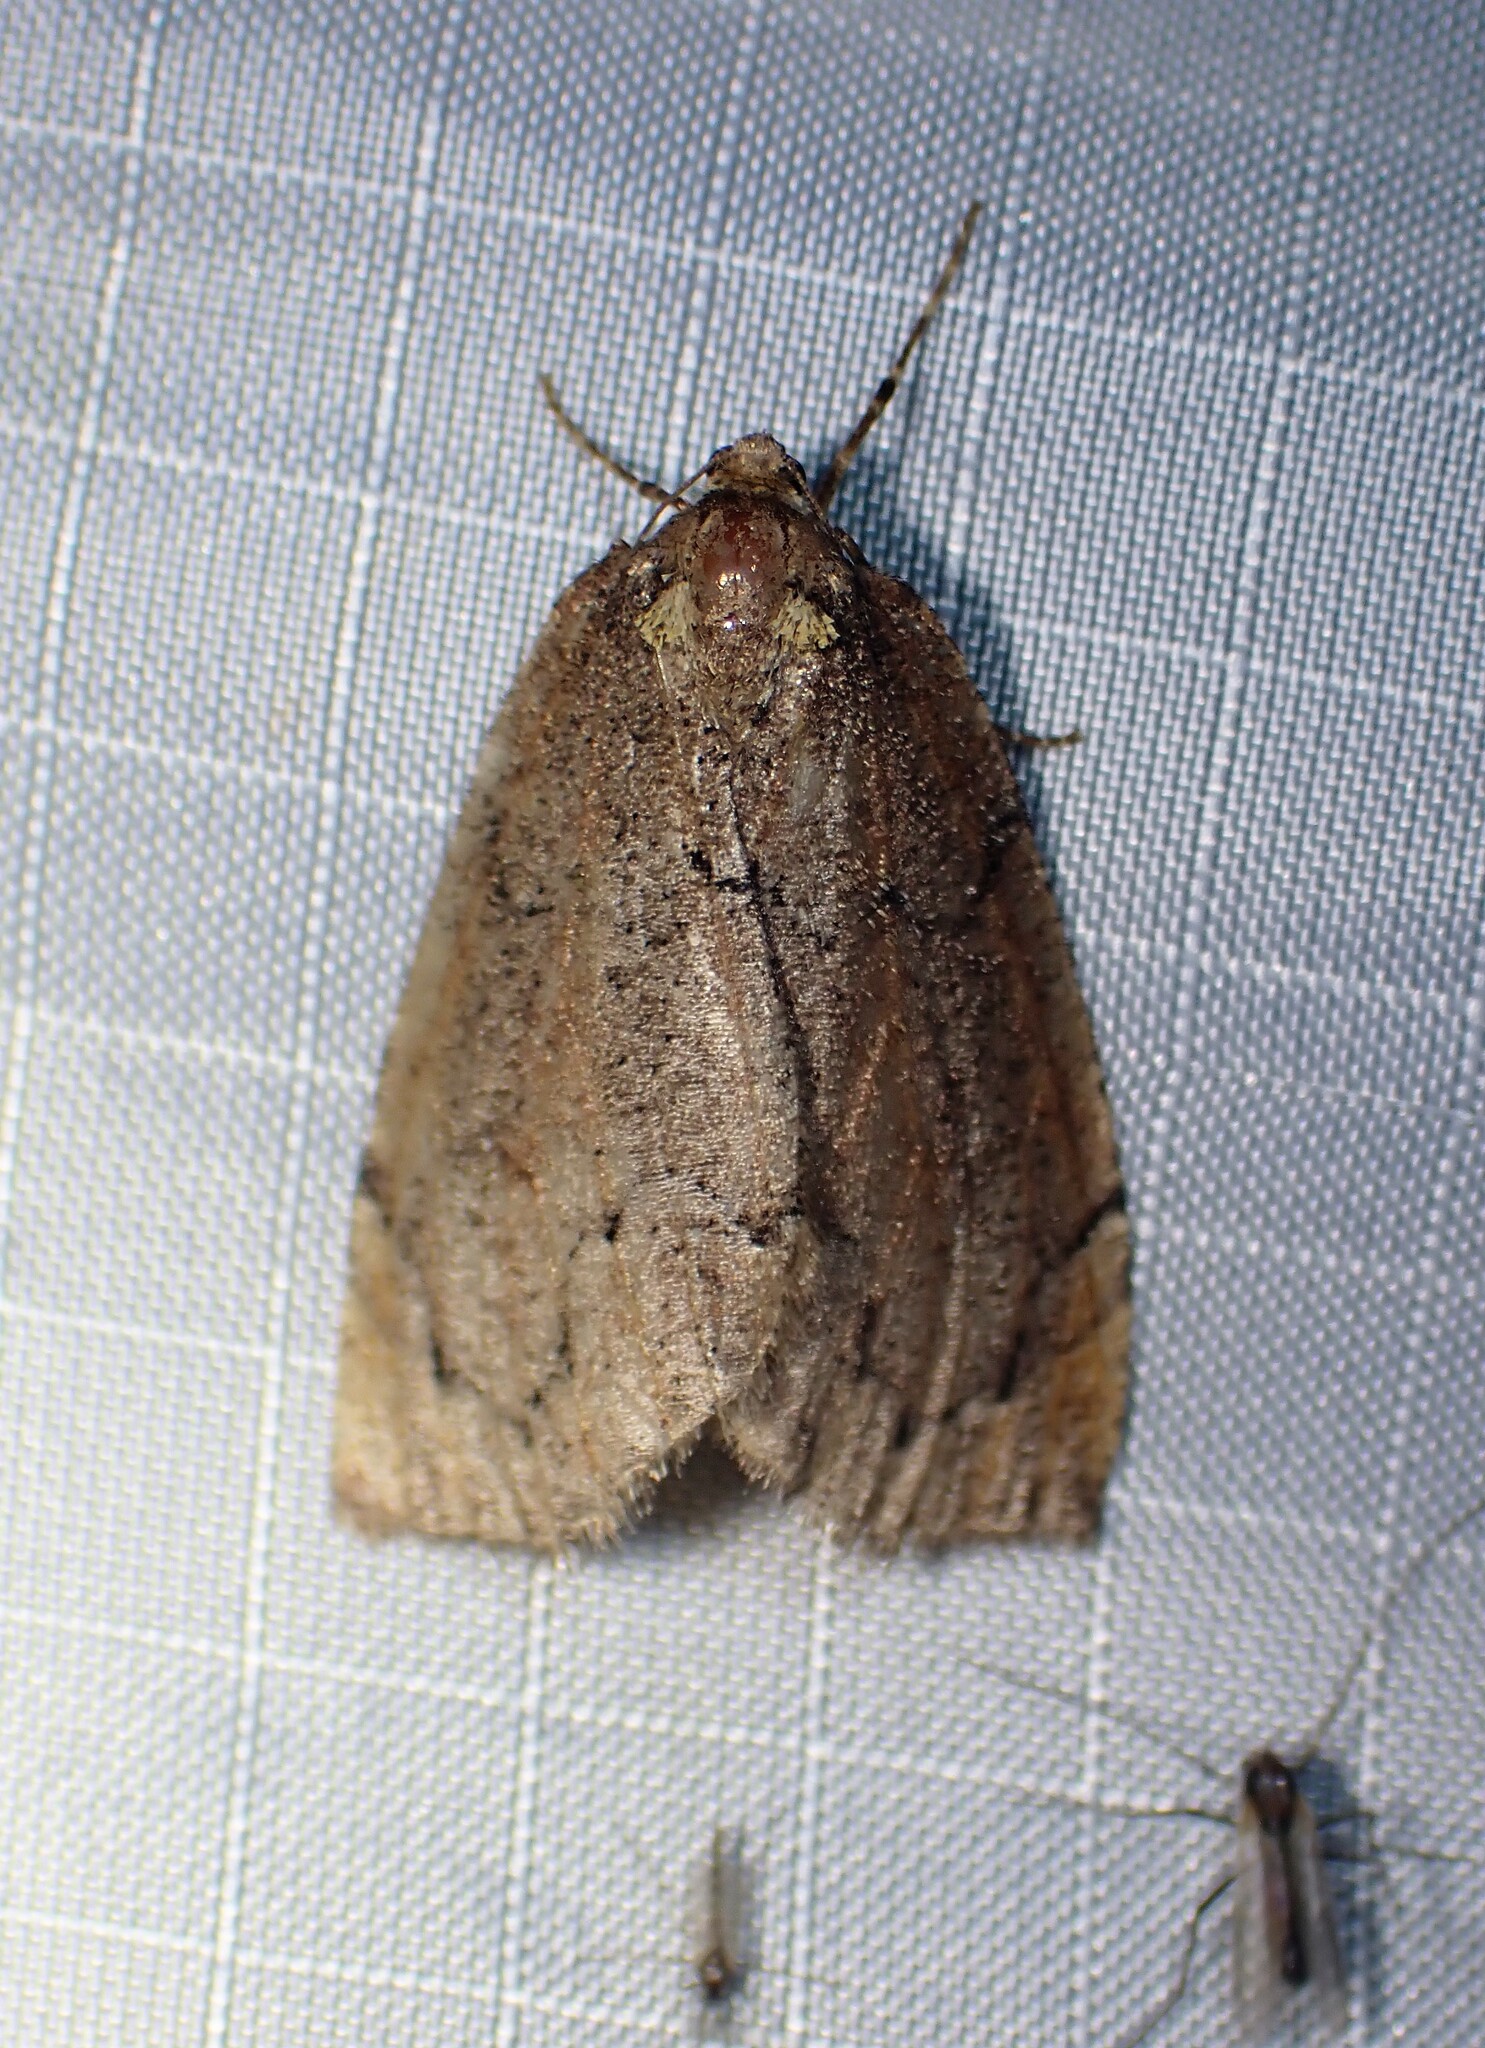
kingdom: Animalia
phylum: Arthropoda
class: Insecta
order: Lepidoptera
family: Geometridae
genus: Spodolepis
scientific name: Spodolepis substriataria
